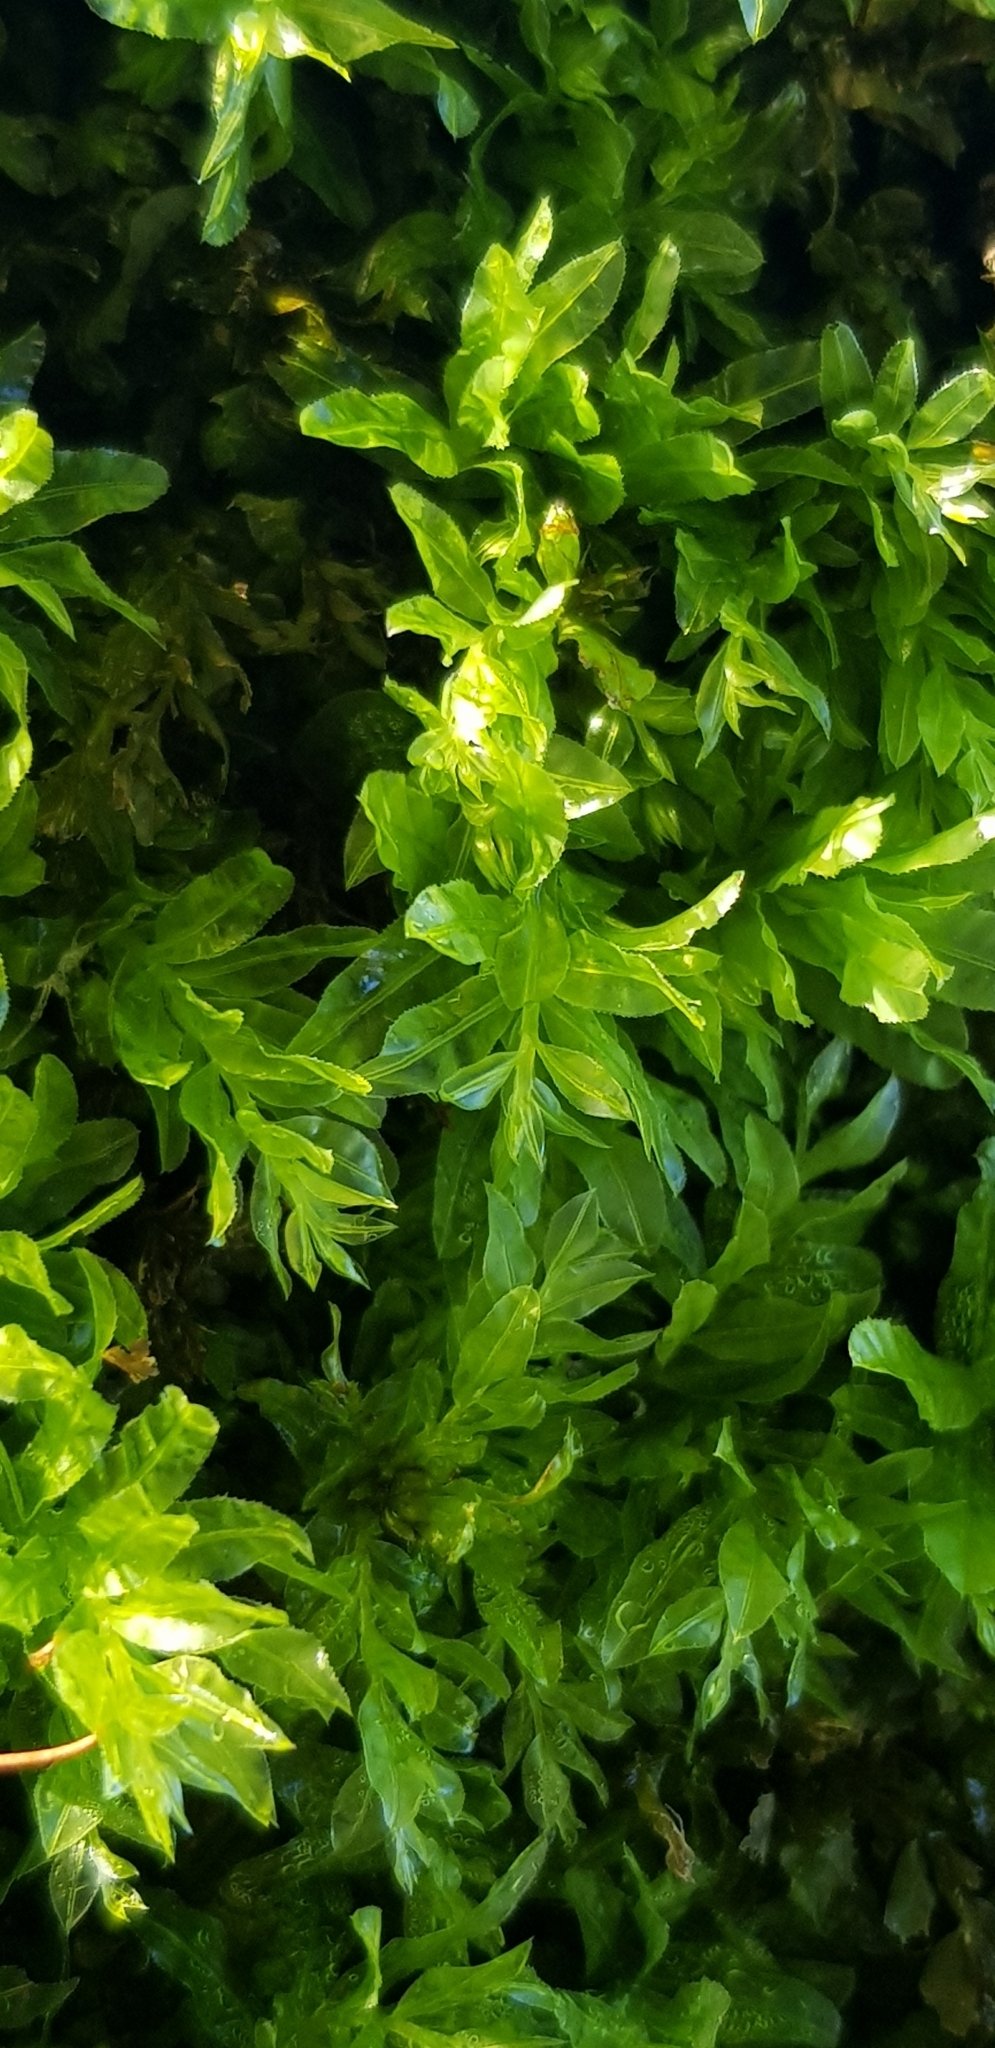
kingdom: Plantae
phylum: Bryophyta
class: Bryopsida
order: Bryales
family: Mniaceae
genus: Plagiomnium
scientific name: Plagiomnium undulatum
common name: Hart's-tongue thyme-moss
